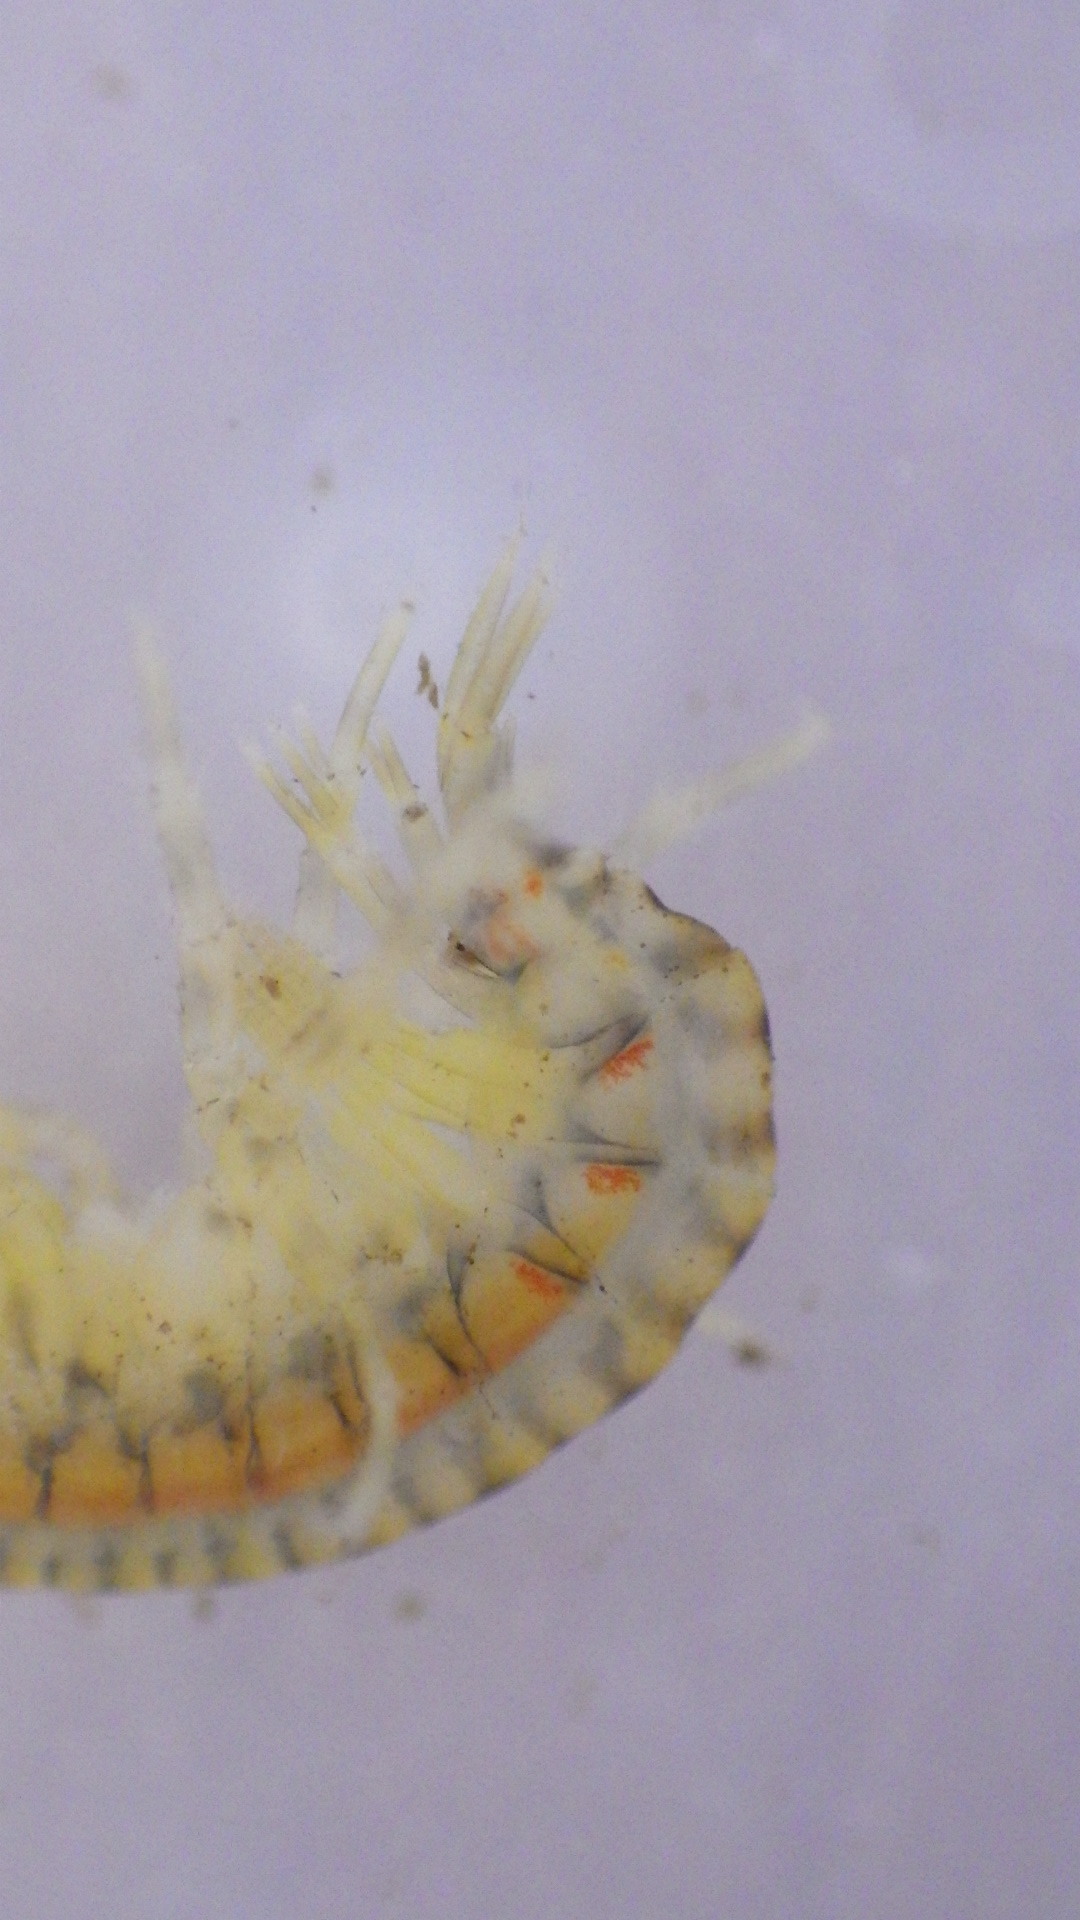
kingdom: Animalia
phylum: Arthropoda
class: Malacostraca
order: Amphipoda
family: Gammaridae
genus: Gammarus
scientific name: Gammarus fasciatus
